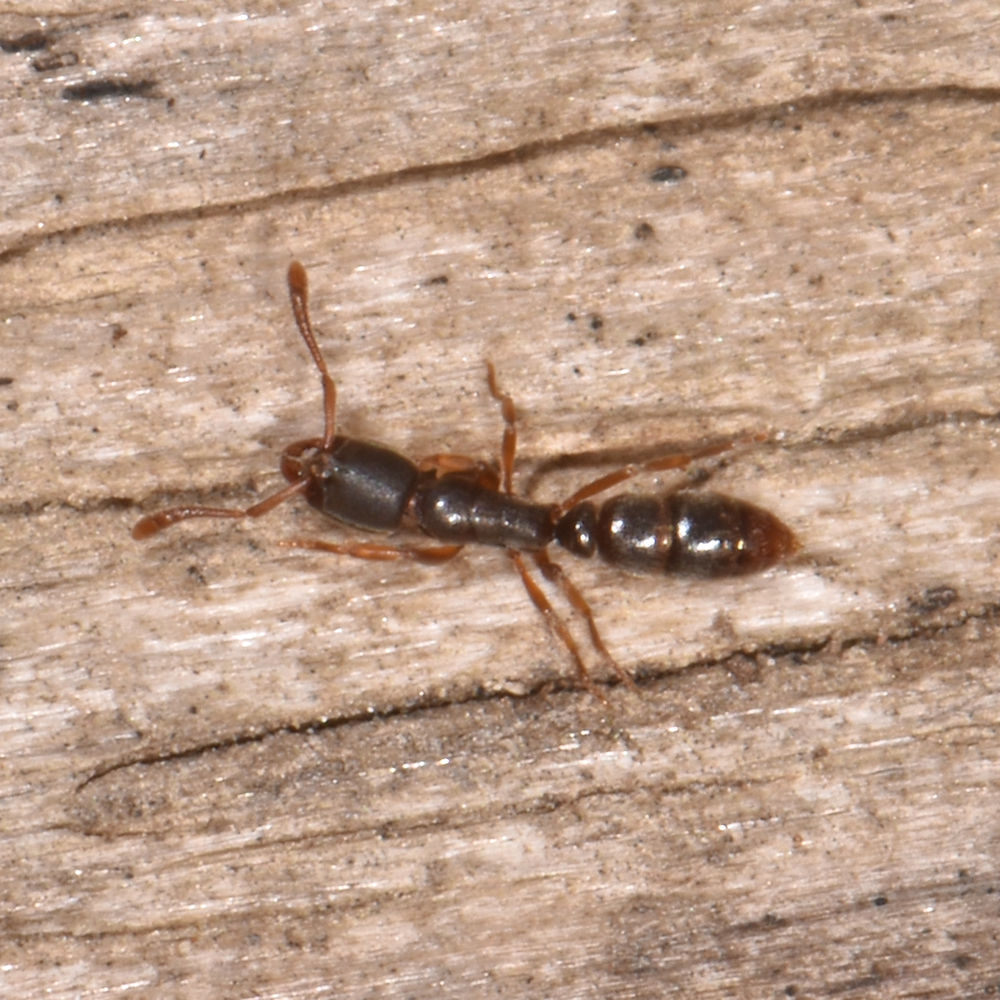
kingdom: Animalia
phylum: Arthropoda
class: Insecta
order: Hymenoptera
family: Formicidae
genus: Ponera
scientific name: Ponera pennsylvanica
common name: Pennsylvania ponera
